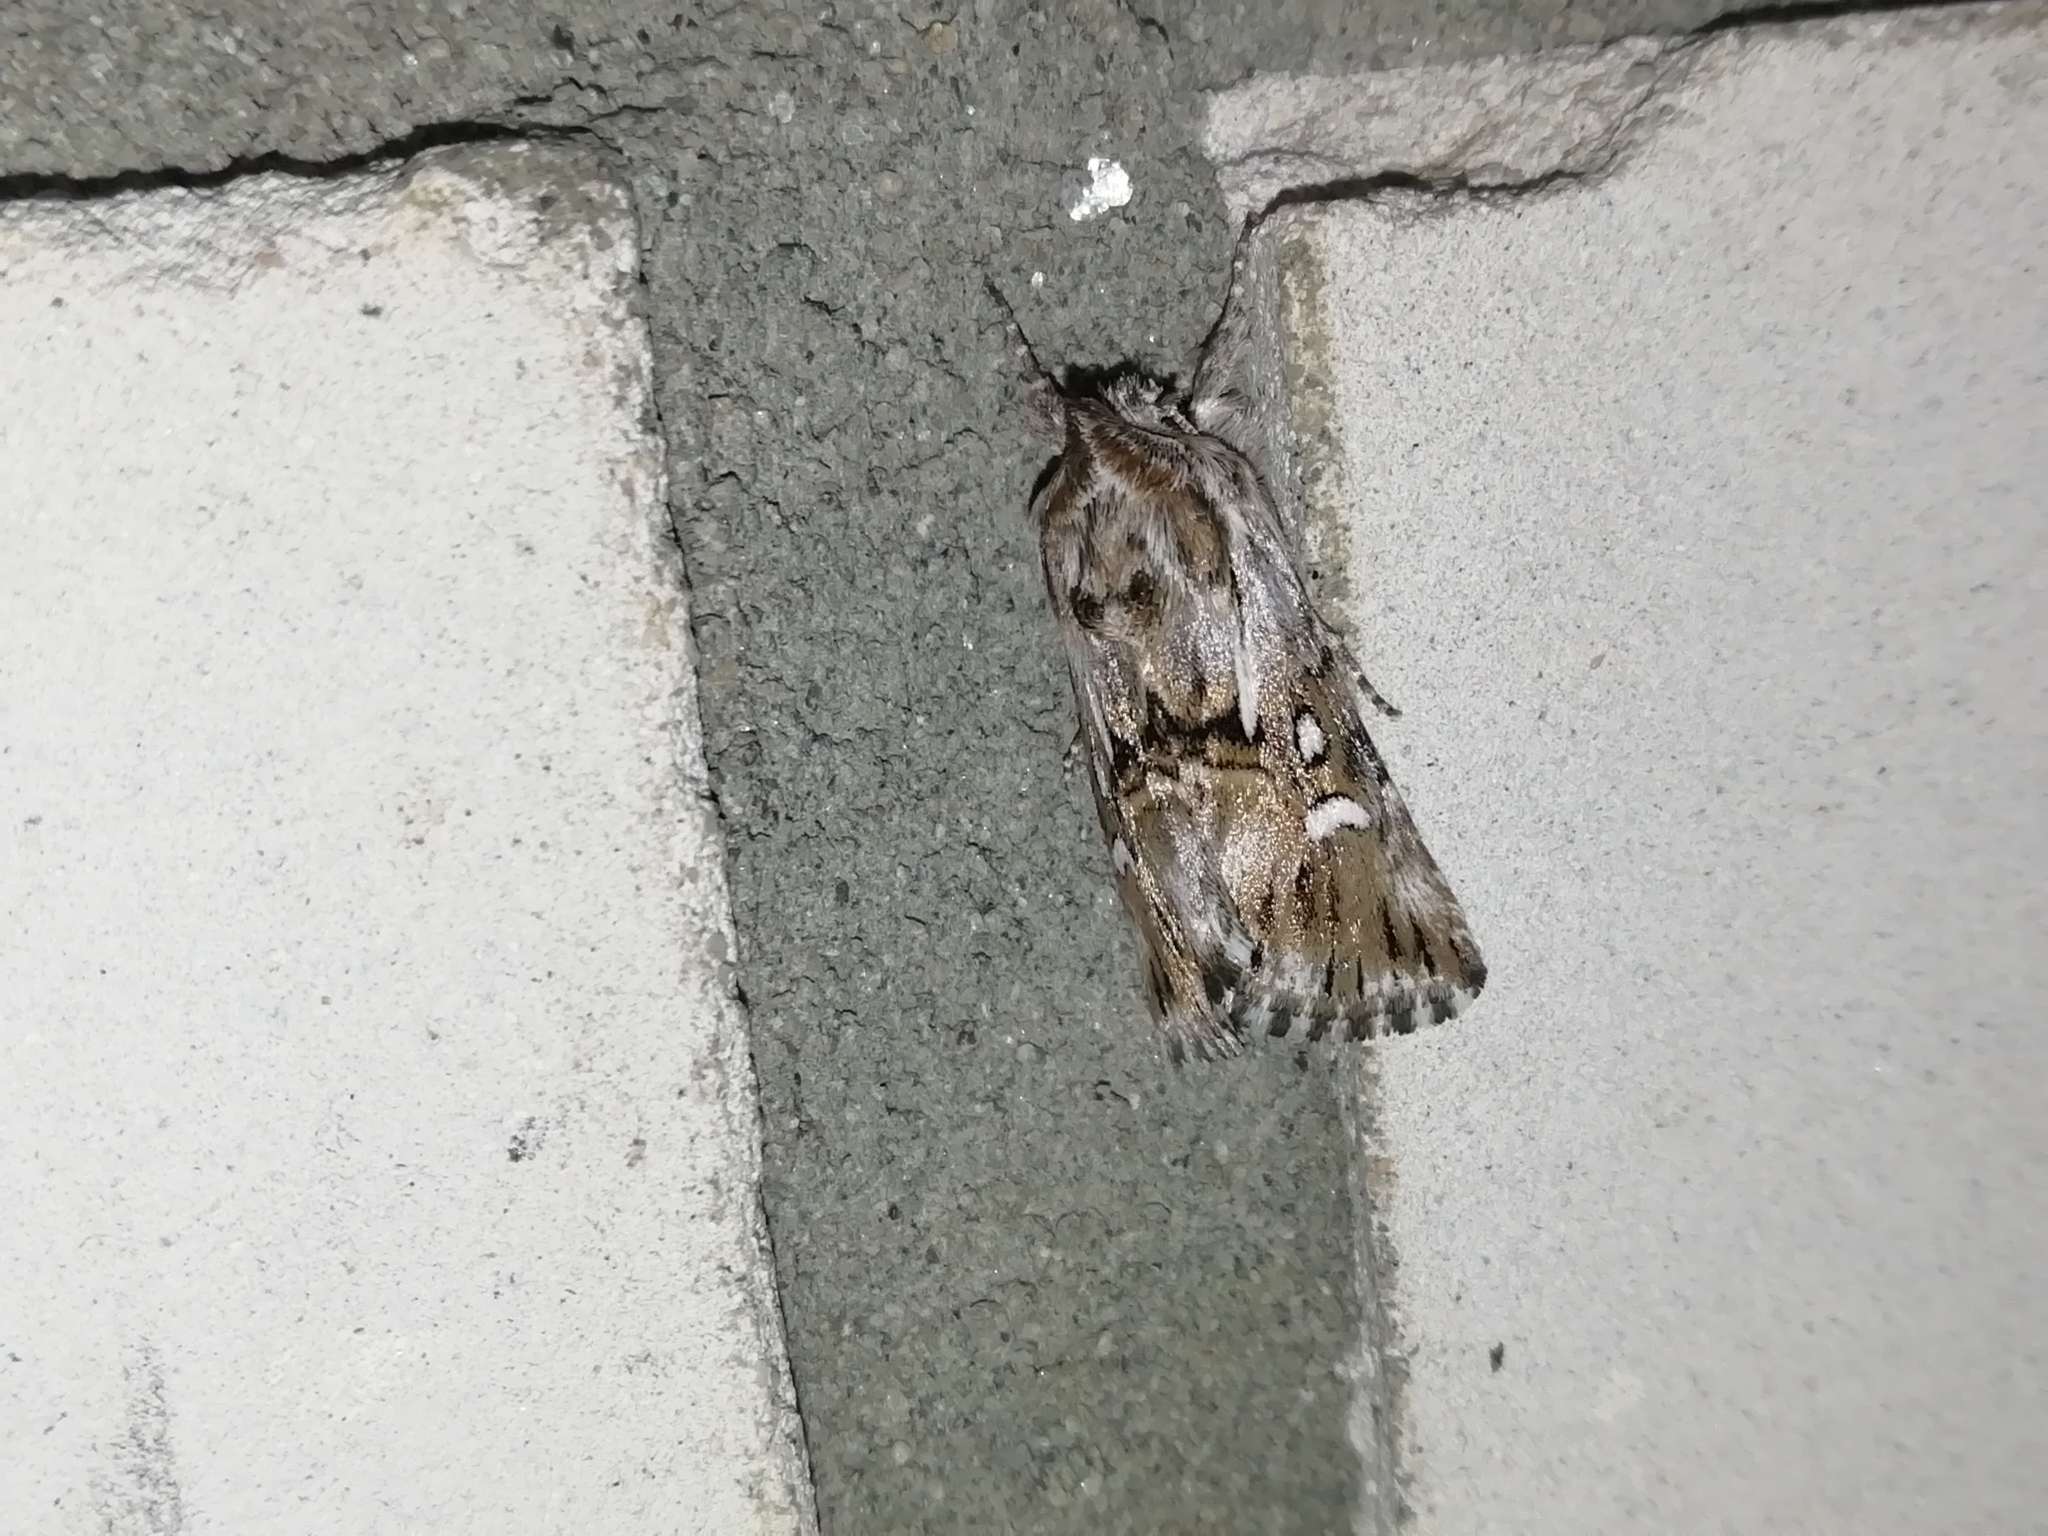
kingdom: Animalia
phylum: Arthropoda
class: Insecta
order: Lepidoptera
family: Noctuidae
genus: Calophasia
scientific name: Calophasia lunula
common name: Toadflax brocade
